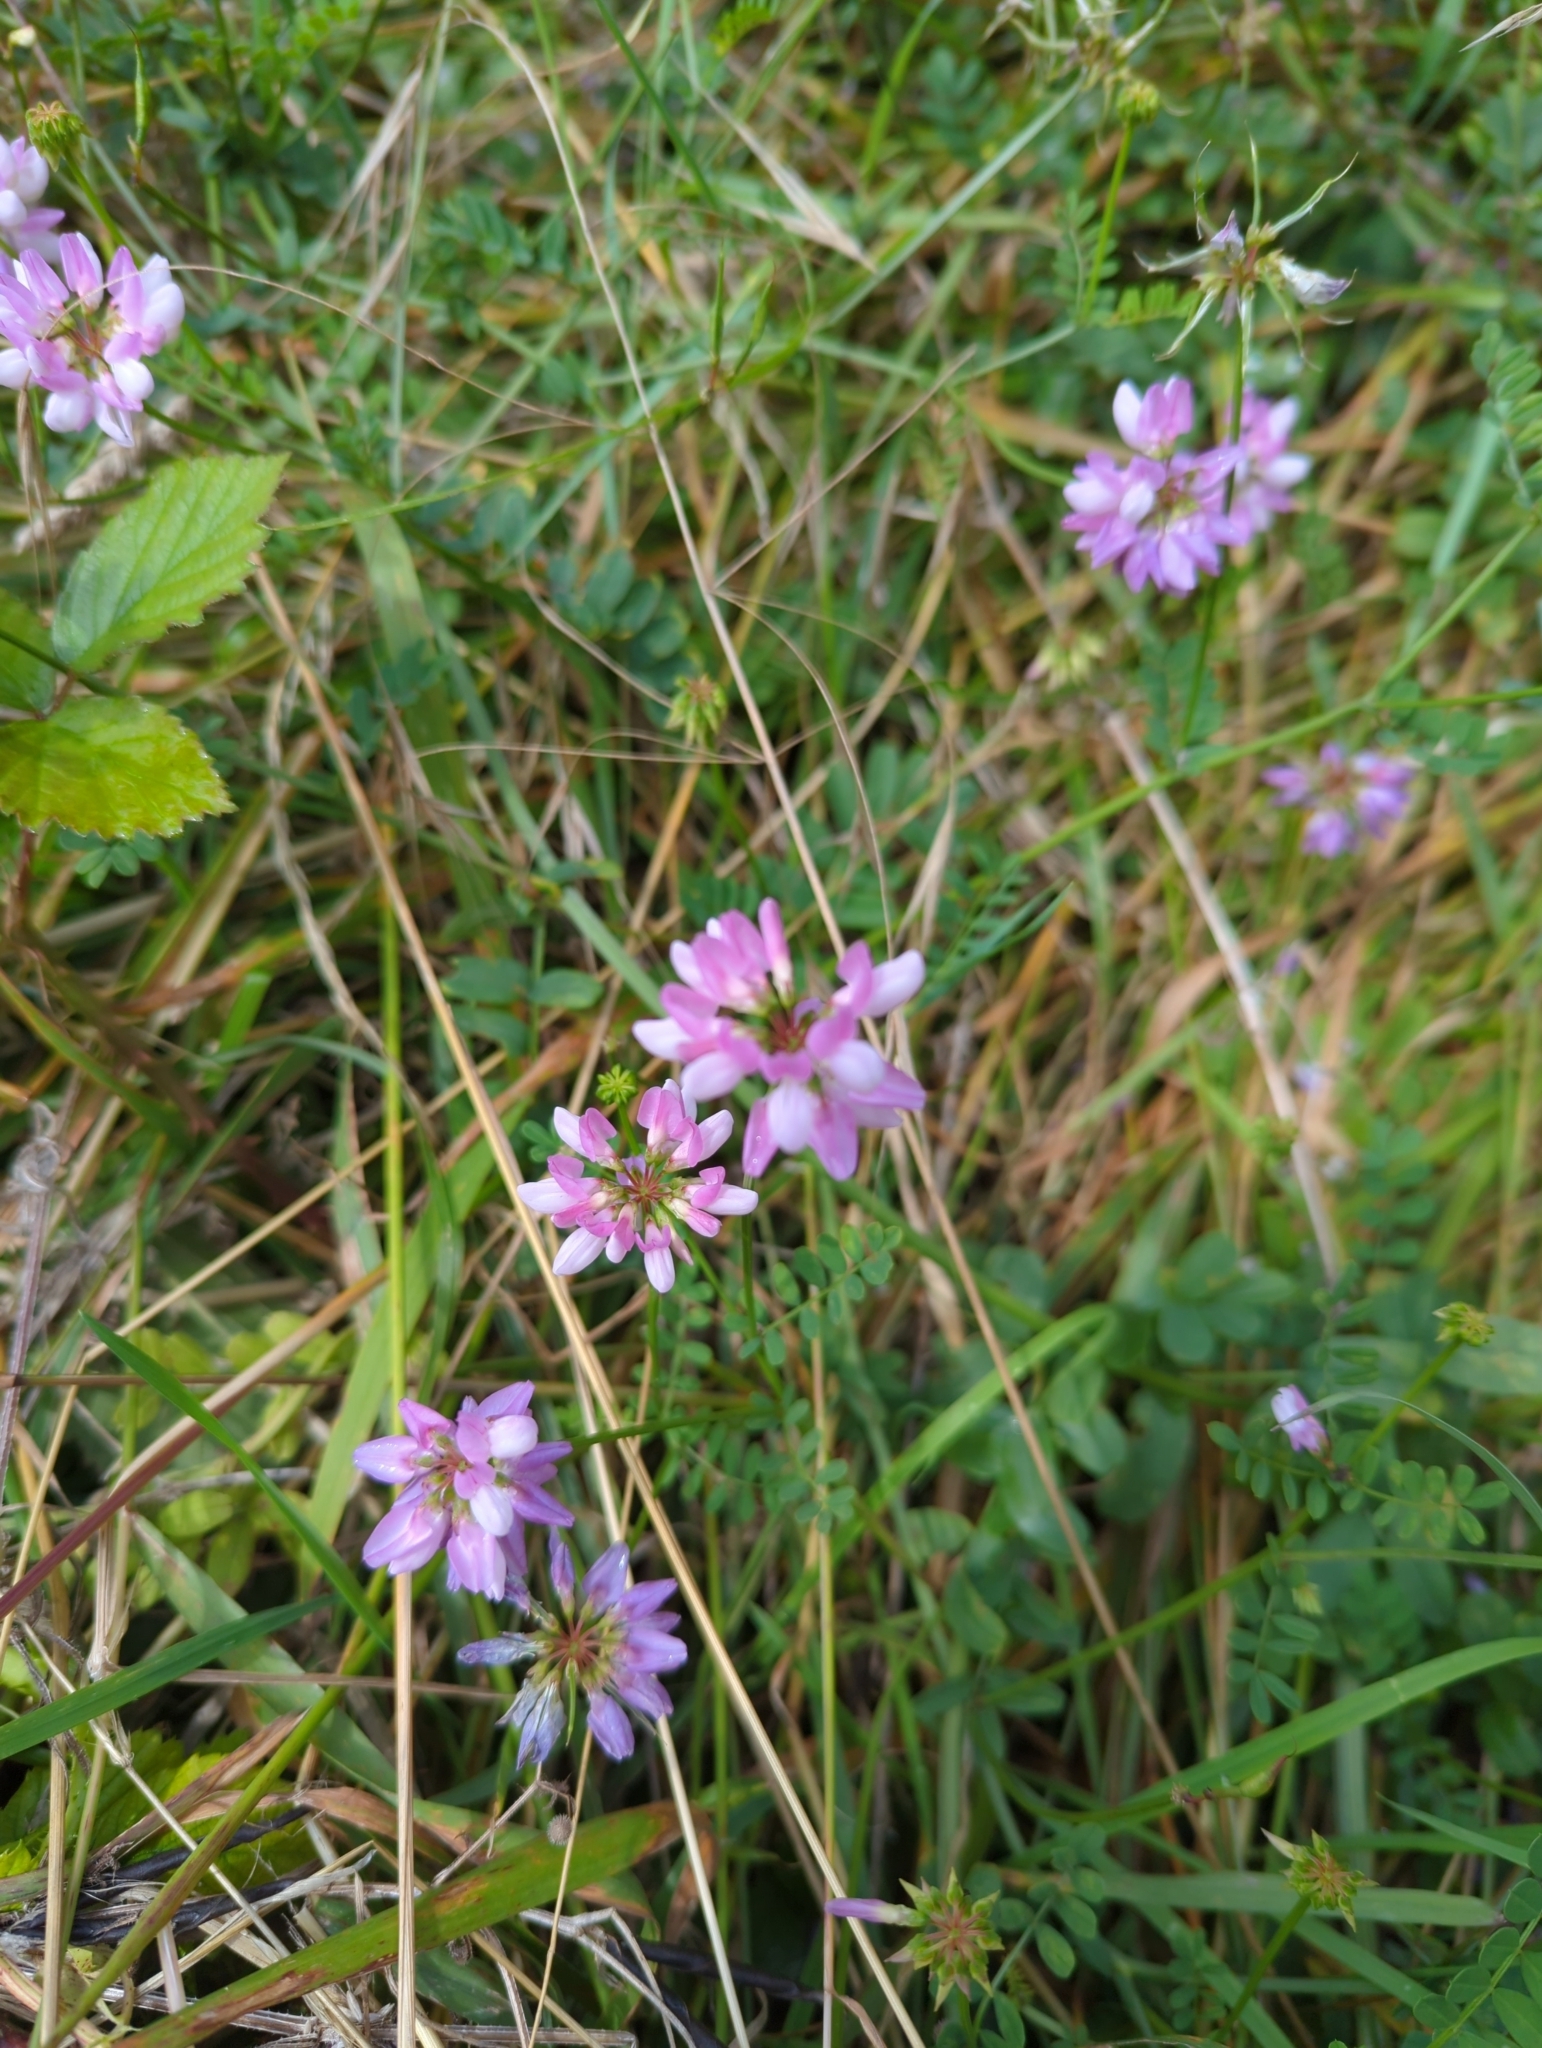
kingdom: Plantae
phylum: Tracheophyta
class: Magnoliopsida
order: Fabales
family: Fabaceae
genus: Coronilla
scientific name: Coronilla varia
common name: Crownvetch
